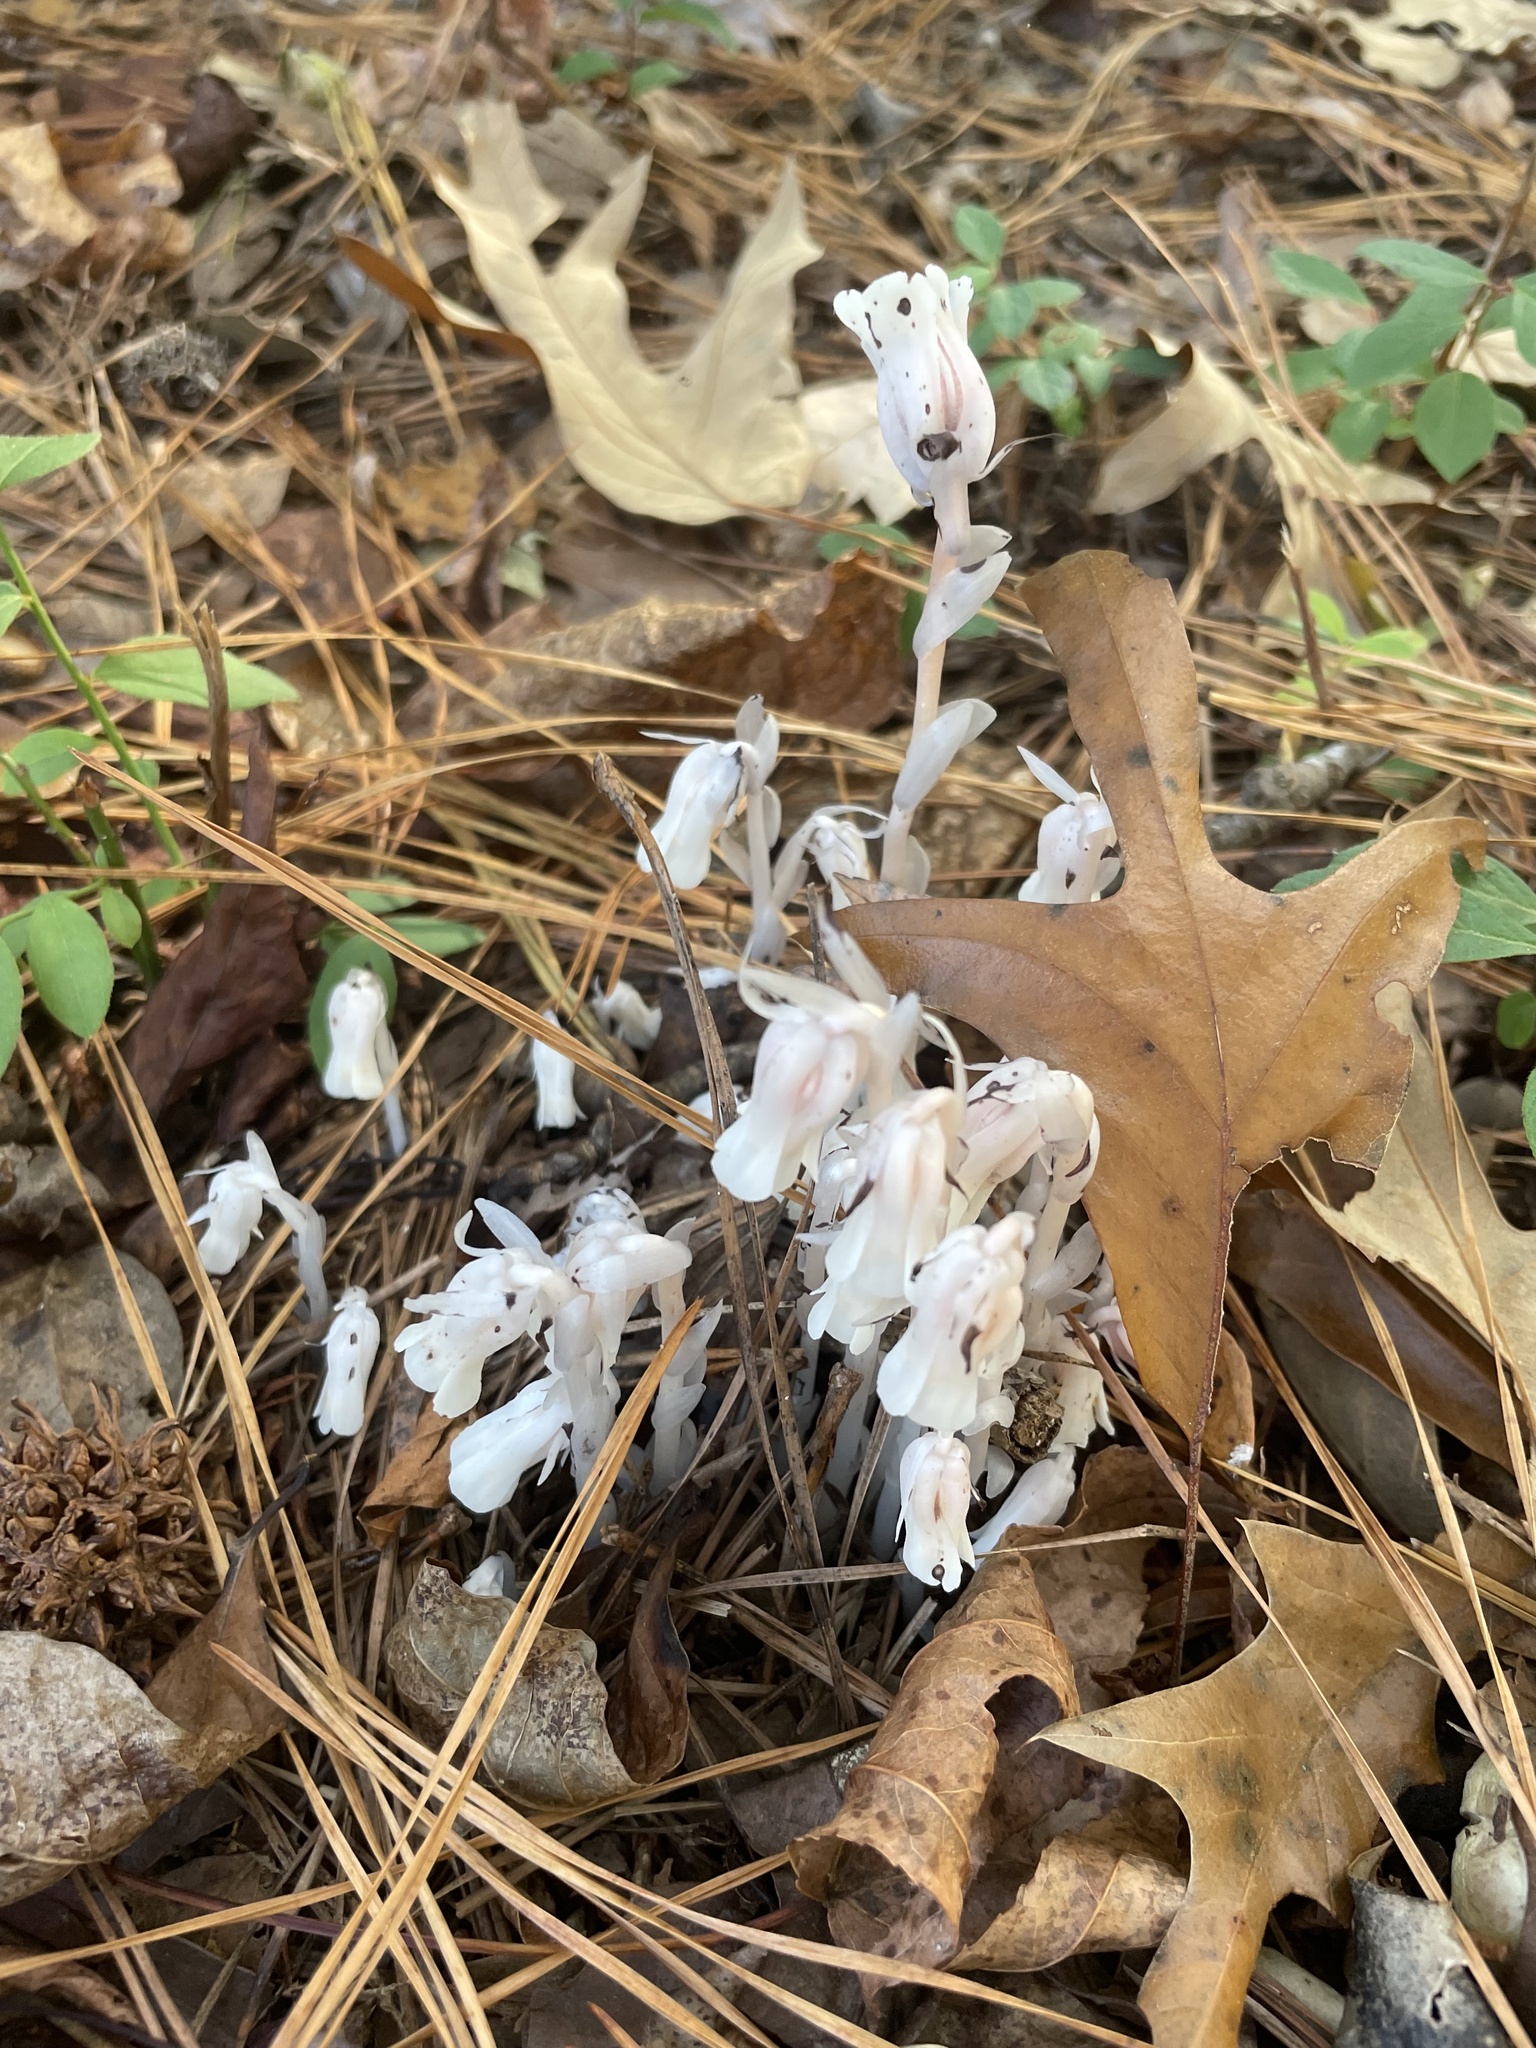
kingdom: Plantae
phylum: Tracheophyta
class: Magnoliopsida
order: Ericales
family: Ericaceae
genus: Monotropa
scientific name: Monotropa uniflora
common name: Convulsion root
